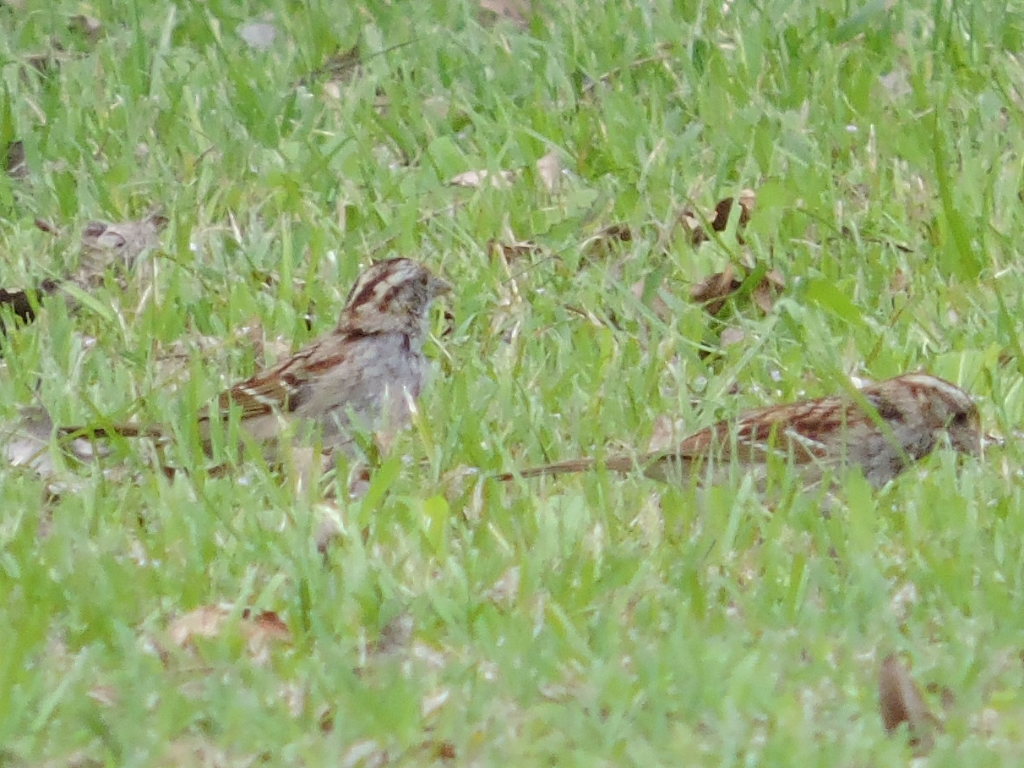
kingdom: Animalia
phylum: Chordata
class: Aves
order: Passeriformes
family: Passerellidae
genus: Zonotrichia
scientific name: Zonotrichia albicollis
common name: White-throated sparrow
